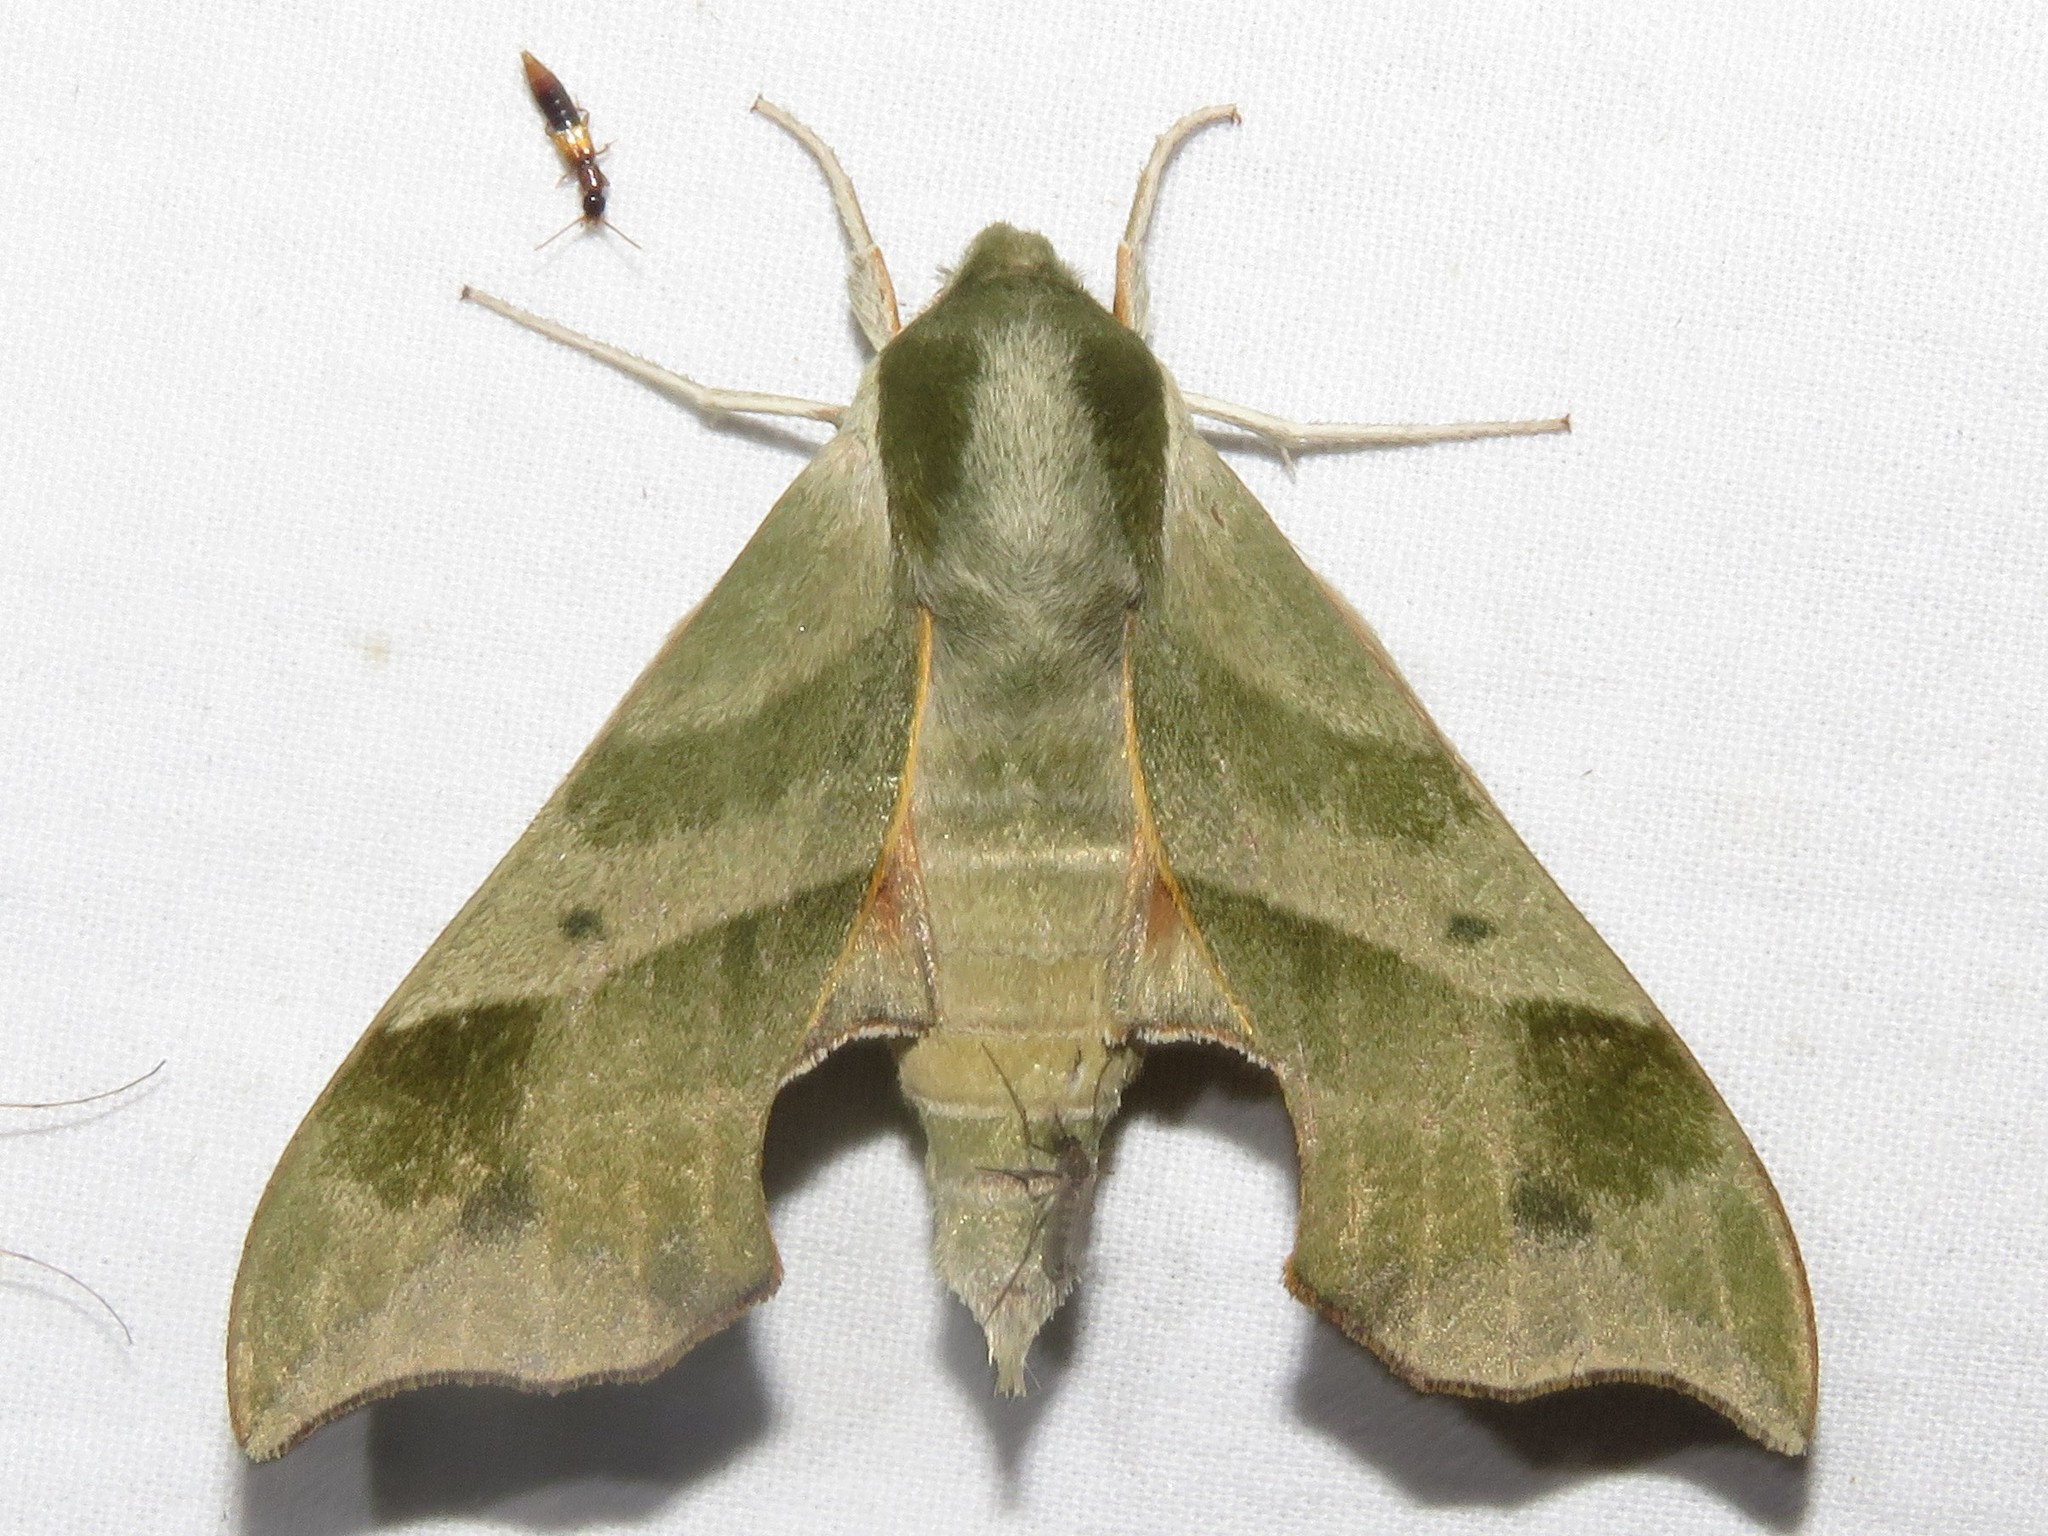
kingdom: Animalia
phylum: Arthropoda
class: Insecta
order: Lepidoptera
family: Sphingidae
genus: Darapsa
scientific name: Darapsa myron
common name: Hog sphinx
